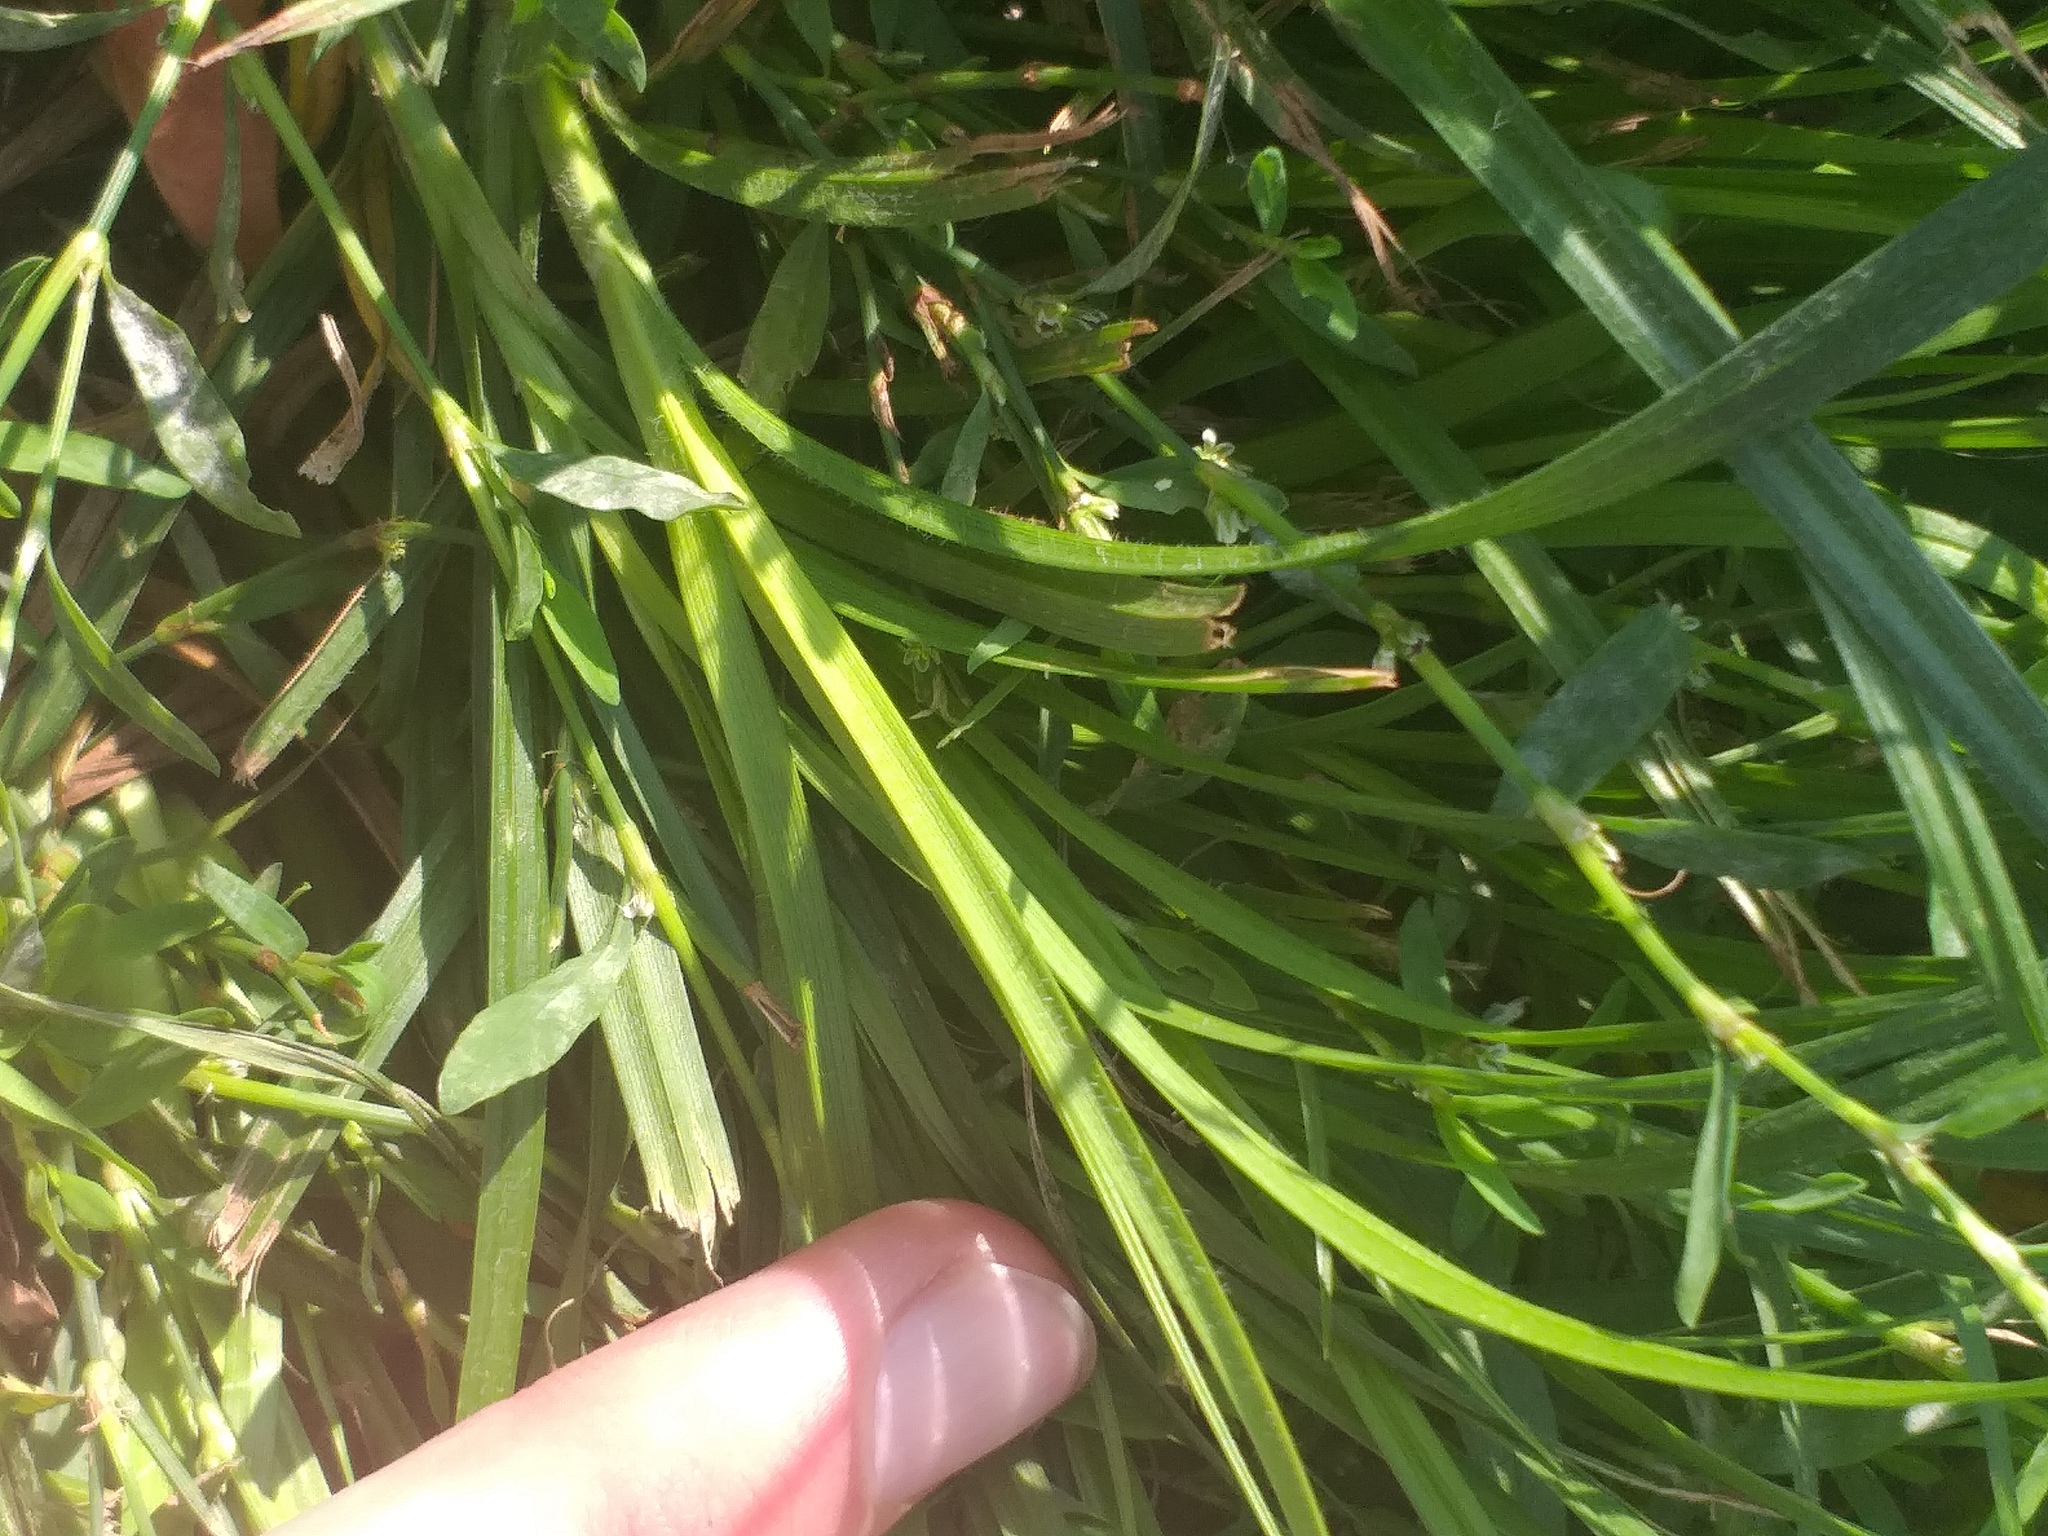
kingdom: Plantae
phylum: Tracheophyta
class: Liliopsida
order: Poales
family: Cyperaceae
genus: Carex
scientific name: Carex hirta
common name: Hairy sedge
